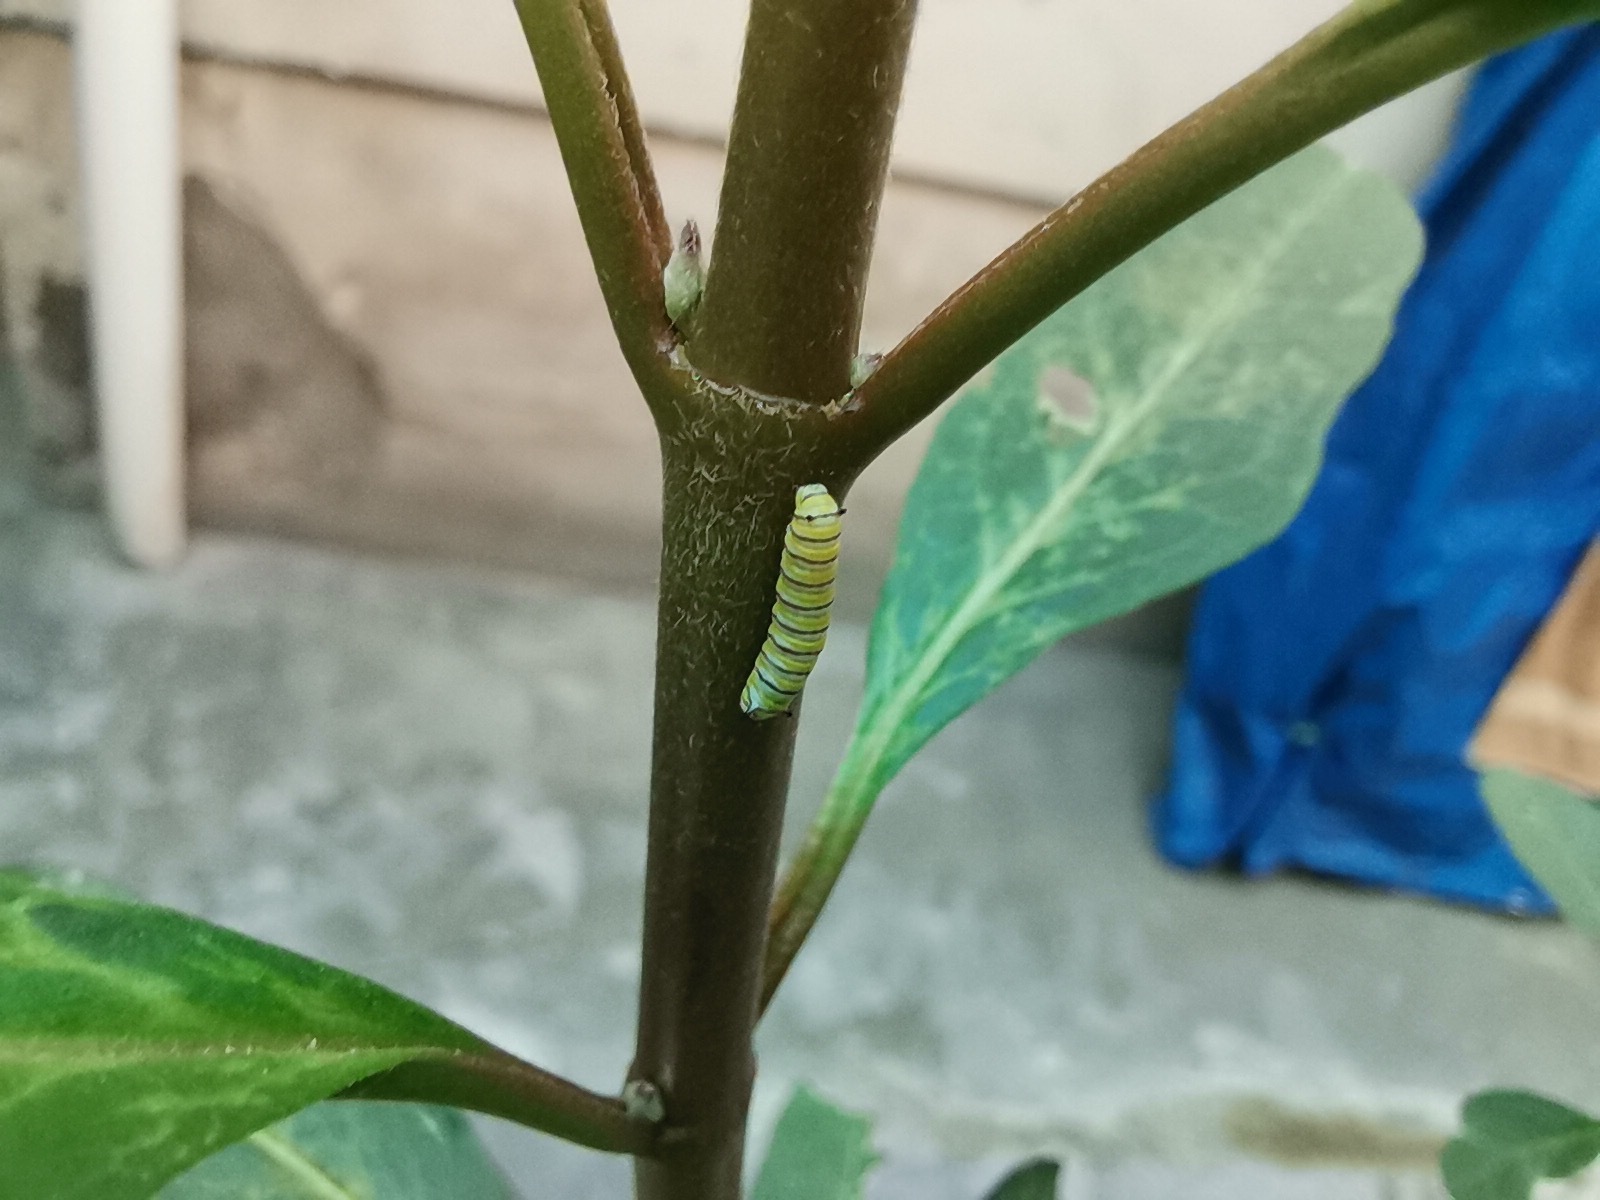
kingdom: Animalia
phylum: Arthropoda
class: Insecta
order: Lepidoptera
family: Nymphalidae
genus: Danaus
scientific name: Danaus plexippus
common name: Monarch
